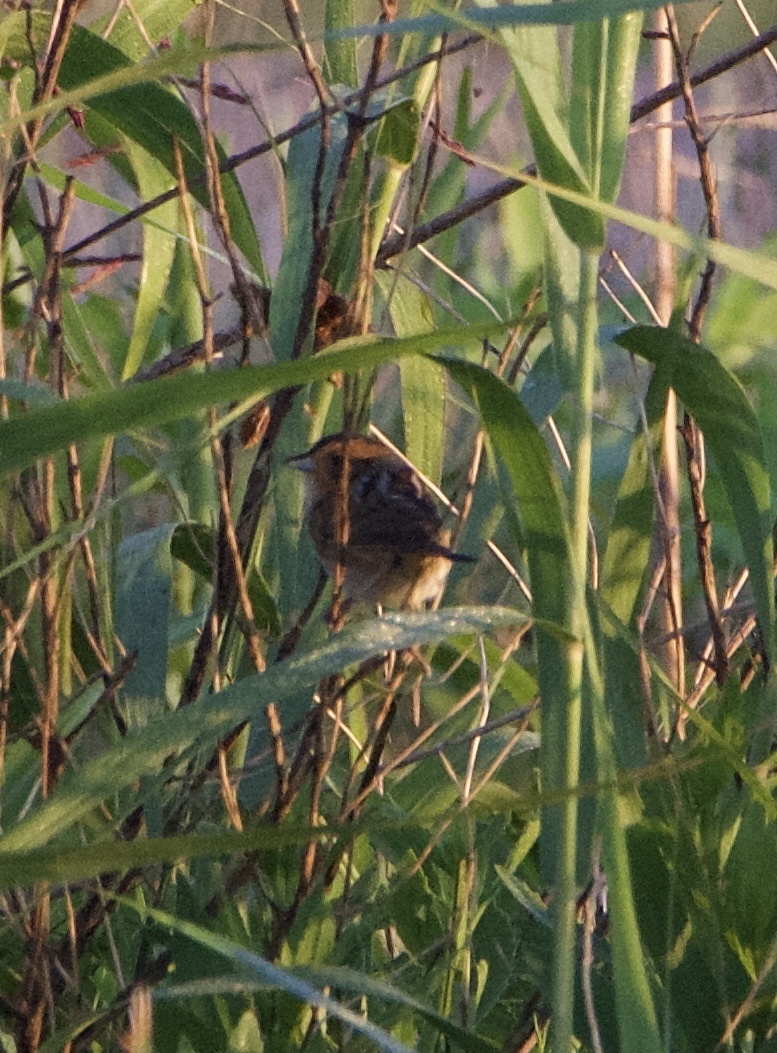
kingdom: Animalia
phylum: Chordata
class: Aves
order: Passeriformes
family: Passerellidae
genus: Ammospiza
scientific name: Ammospiza nelsoni
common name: Nelson's sparrow
